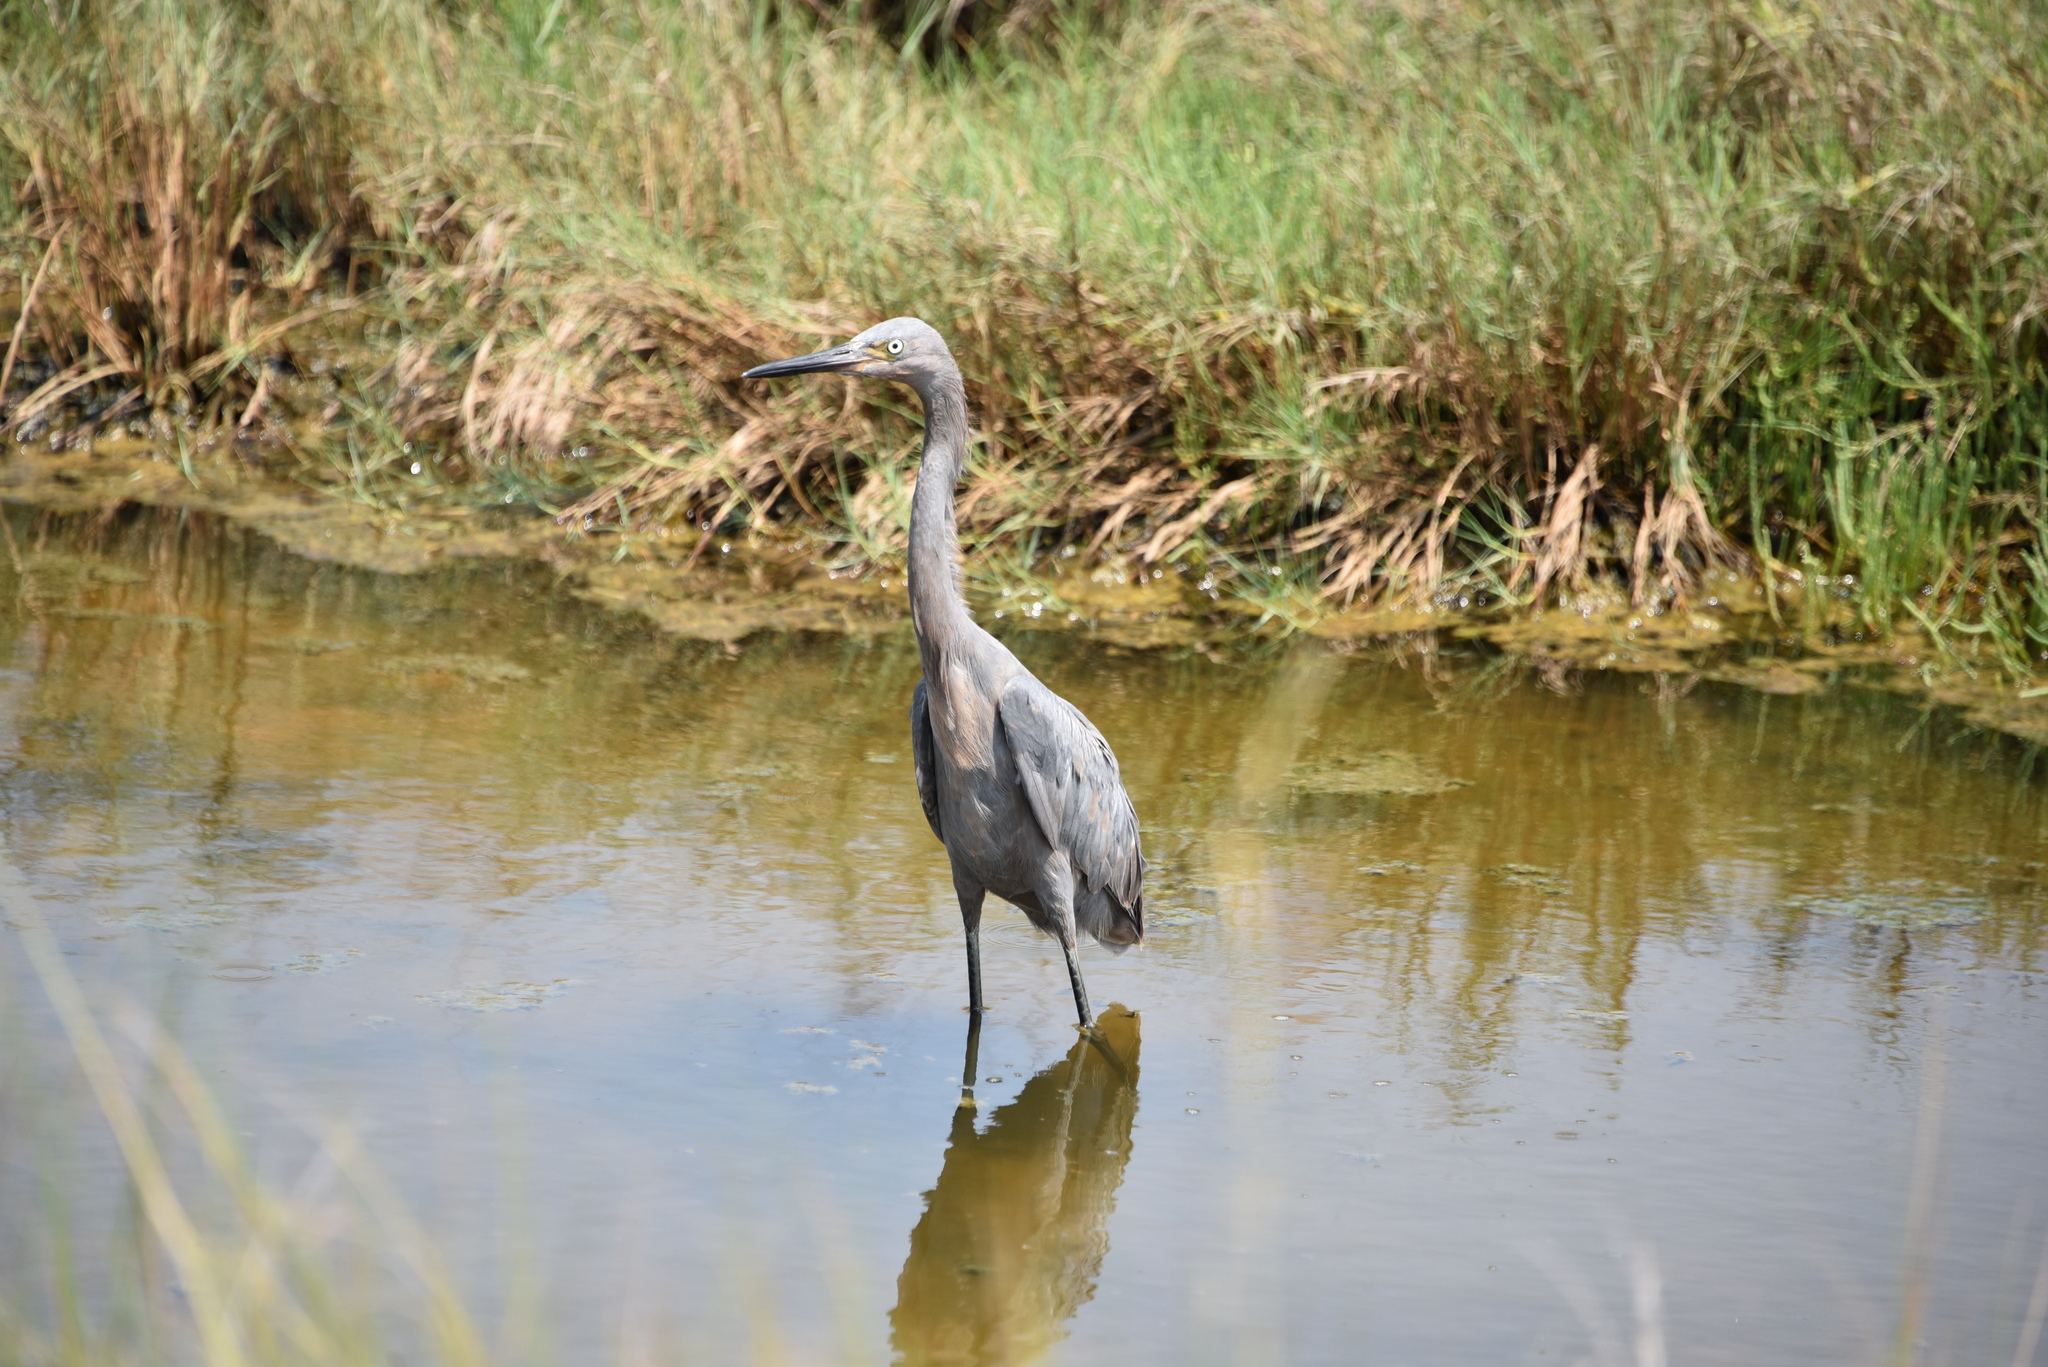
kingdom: Animalia
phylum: Chordata
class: Aves
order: Pelecaniformes
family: Ardeidae
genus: Egretta
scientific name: Egretta rufescens
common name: Reddish egret
